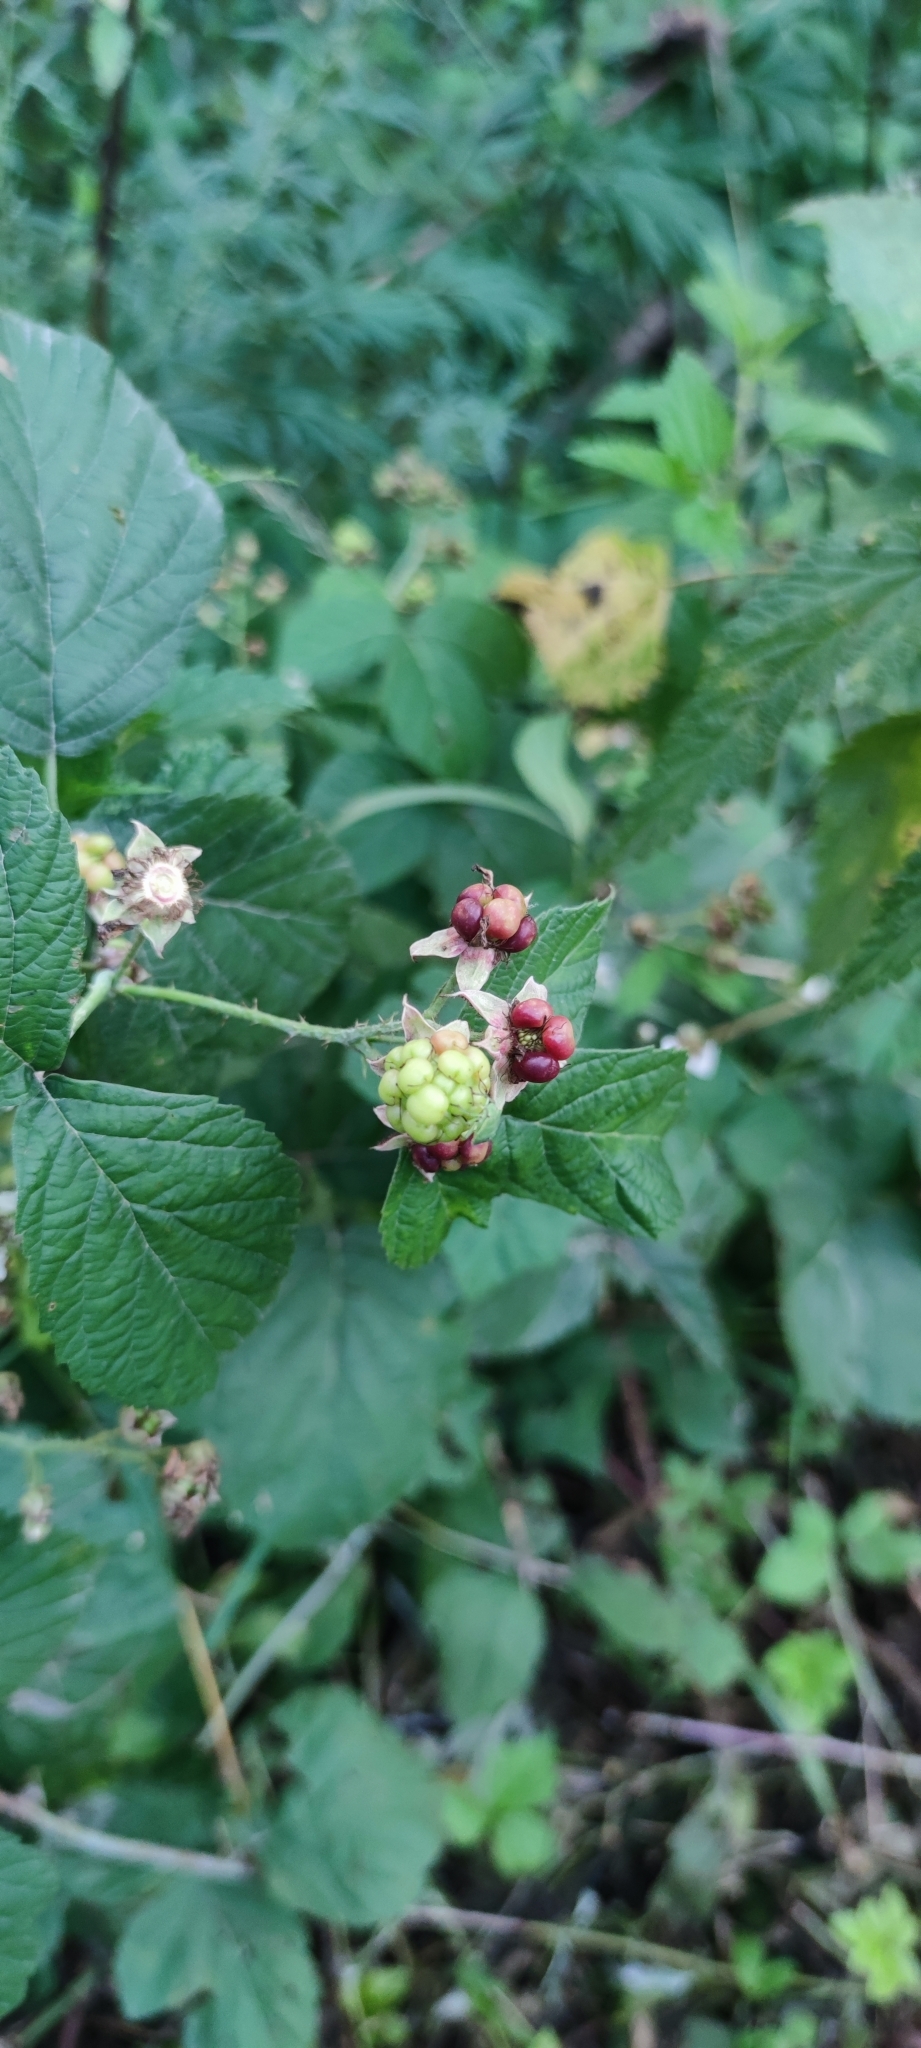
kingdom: Plantae
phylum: Tracheophyta
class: Magnoliopsida
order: Rosales
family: Rosaceae
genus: Rubus
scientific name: Rubus caesius
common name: Dewberry
